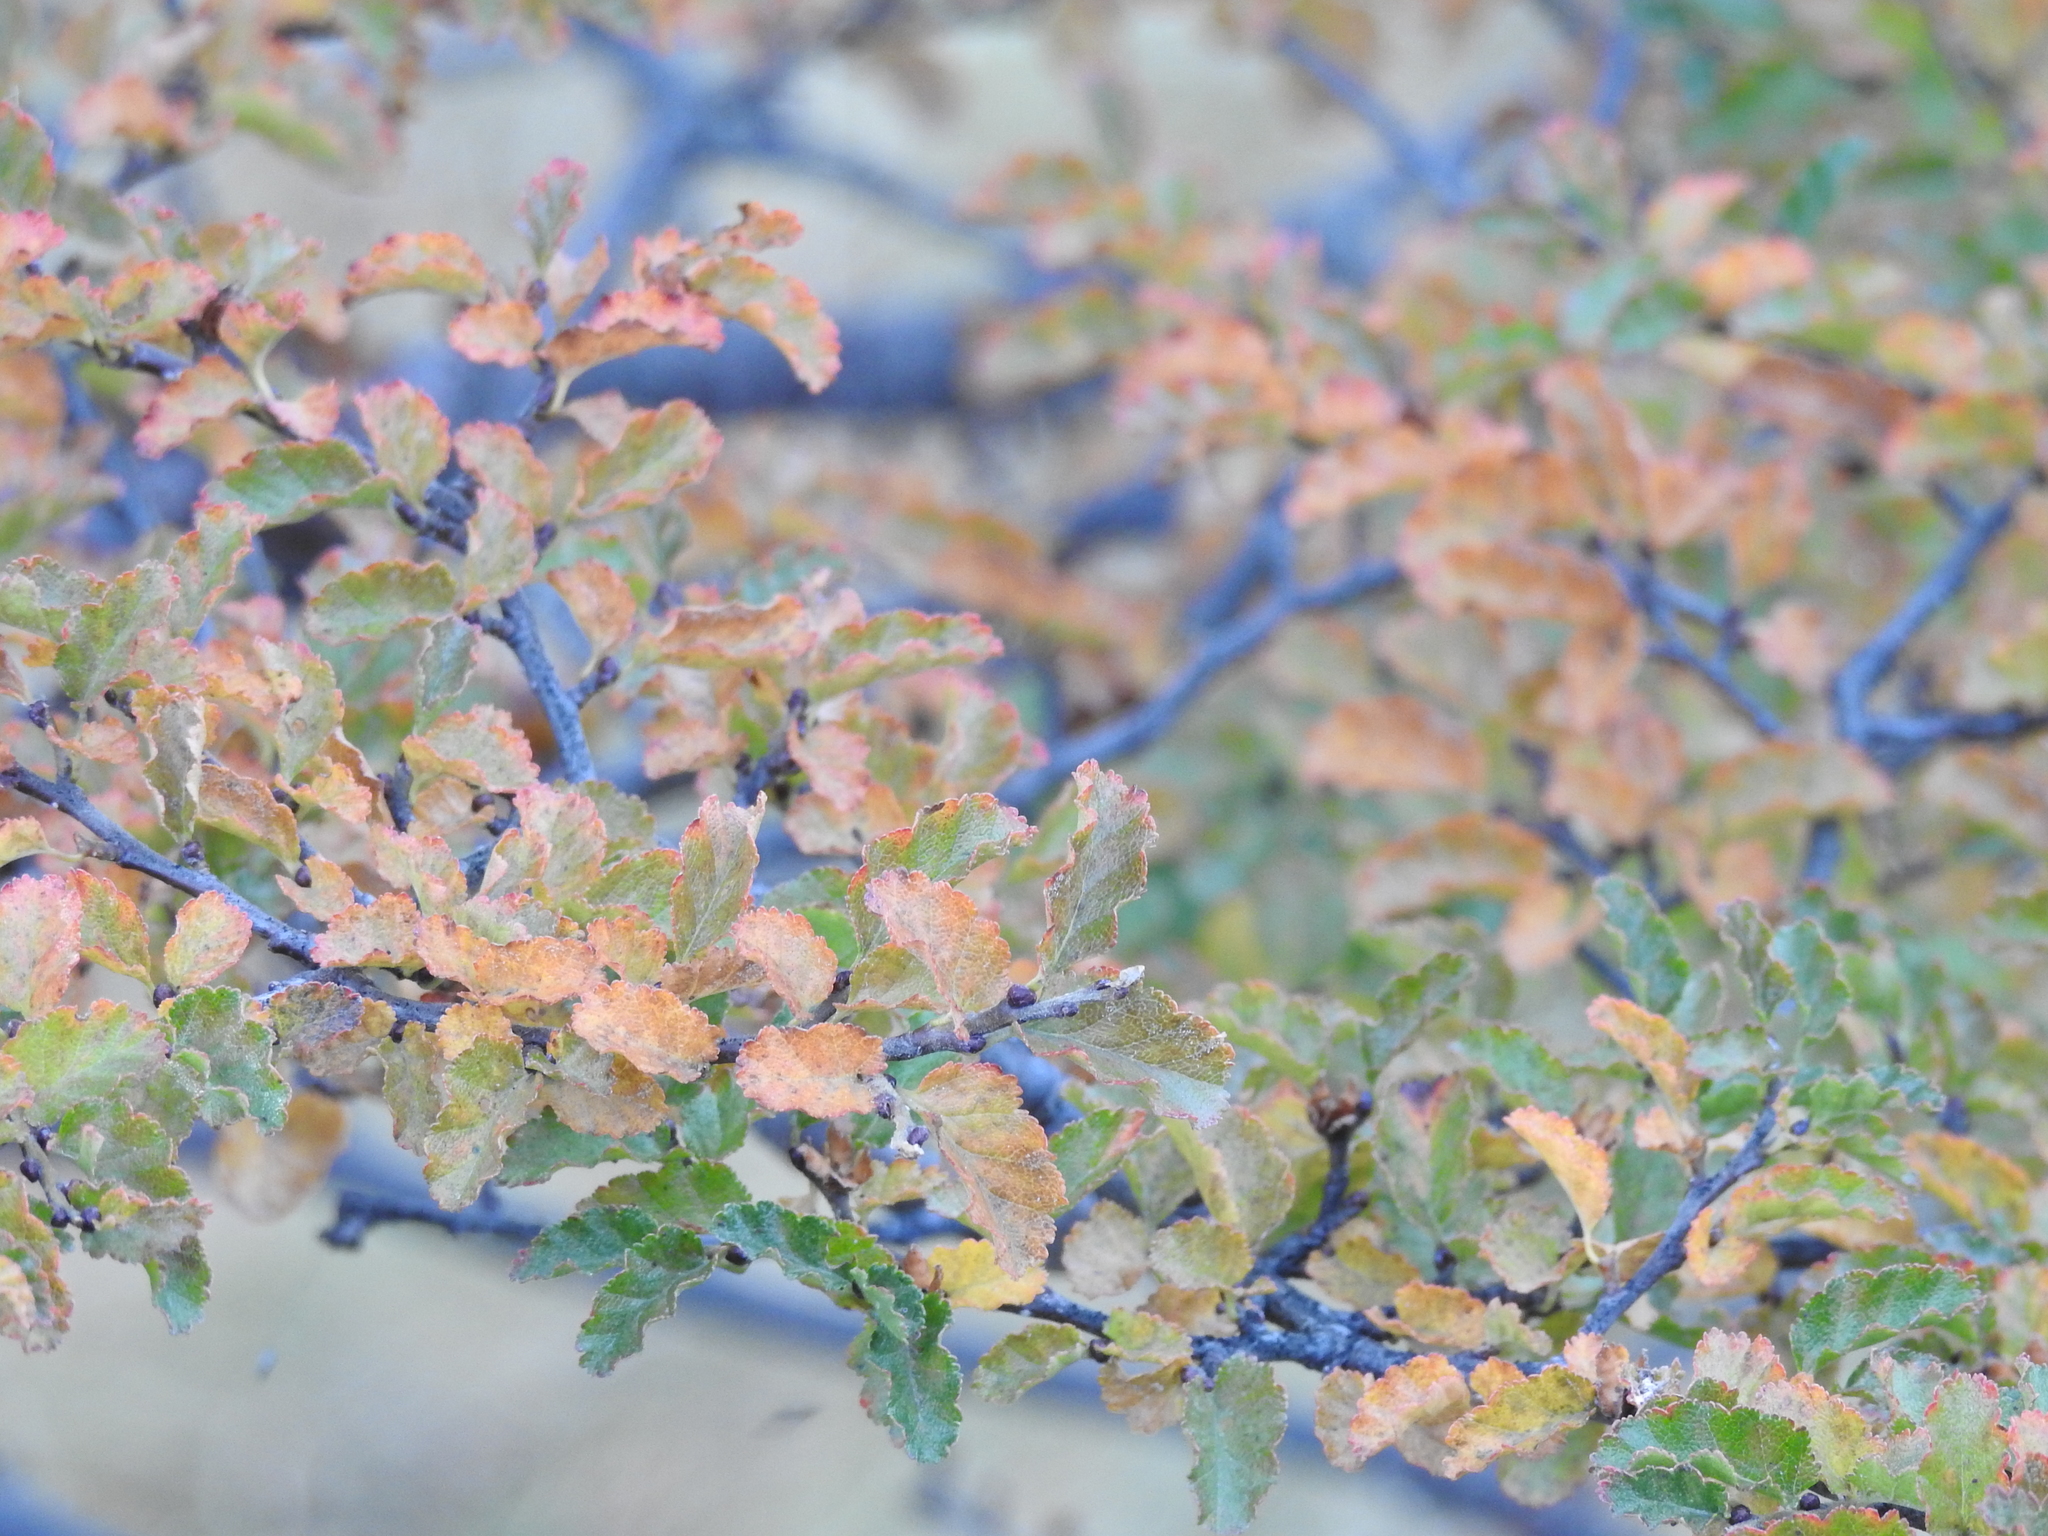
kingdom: Plantae
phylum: Tracheophyta
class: Magnoliopsida
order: Fagales
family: Nothofagaceae
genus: Nothofagus
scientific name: Nothofagus antarctica
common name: Antarctic beech
